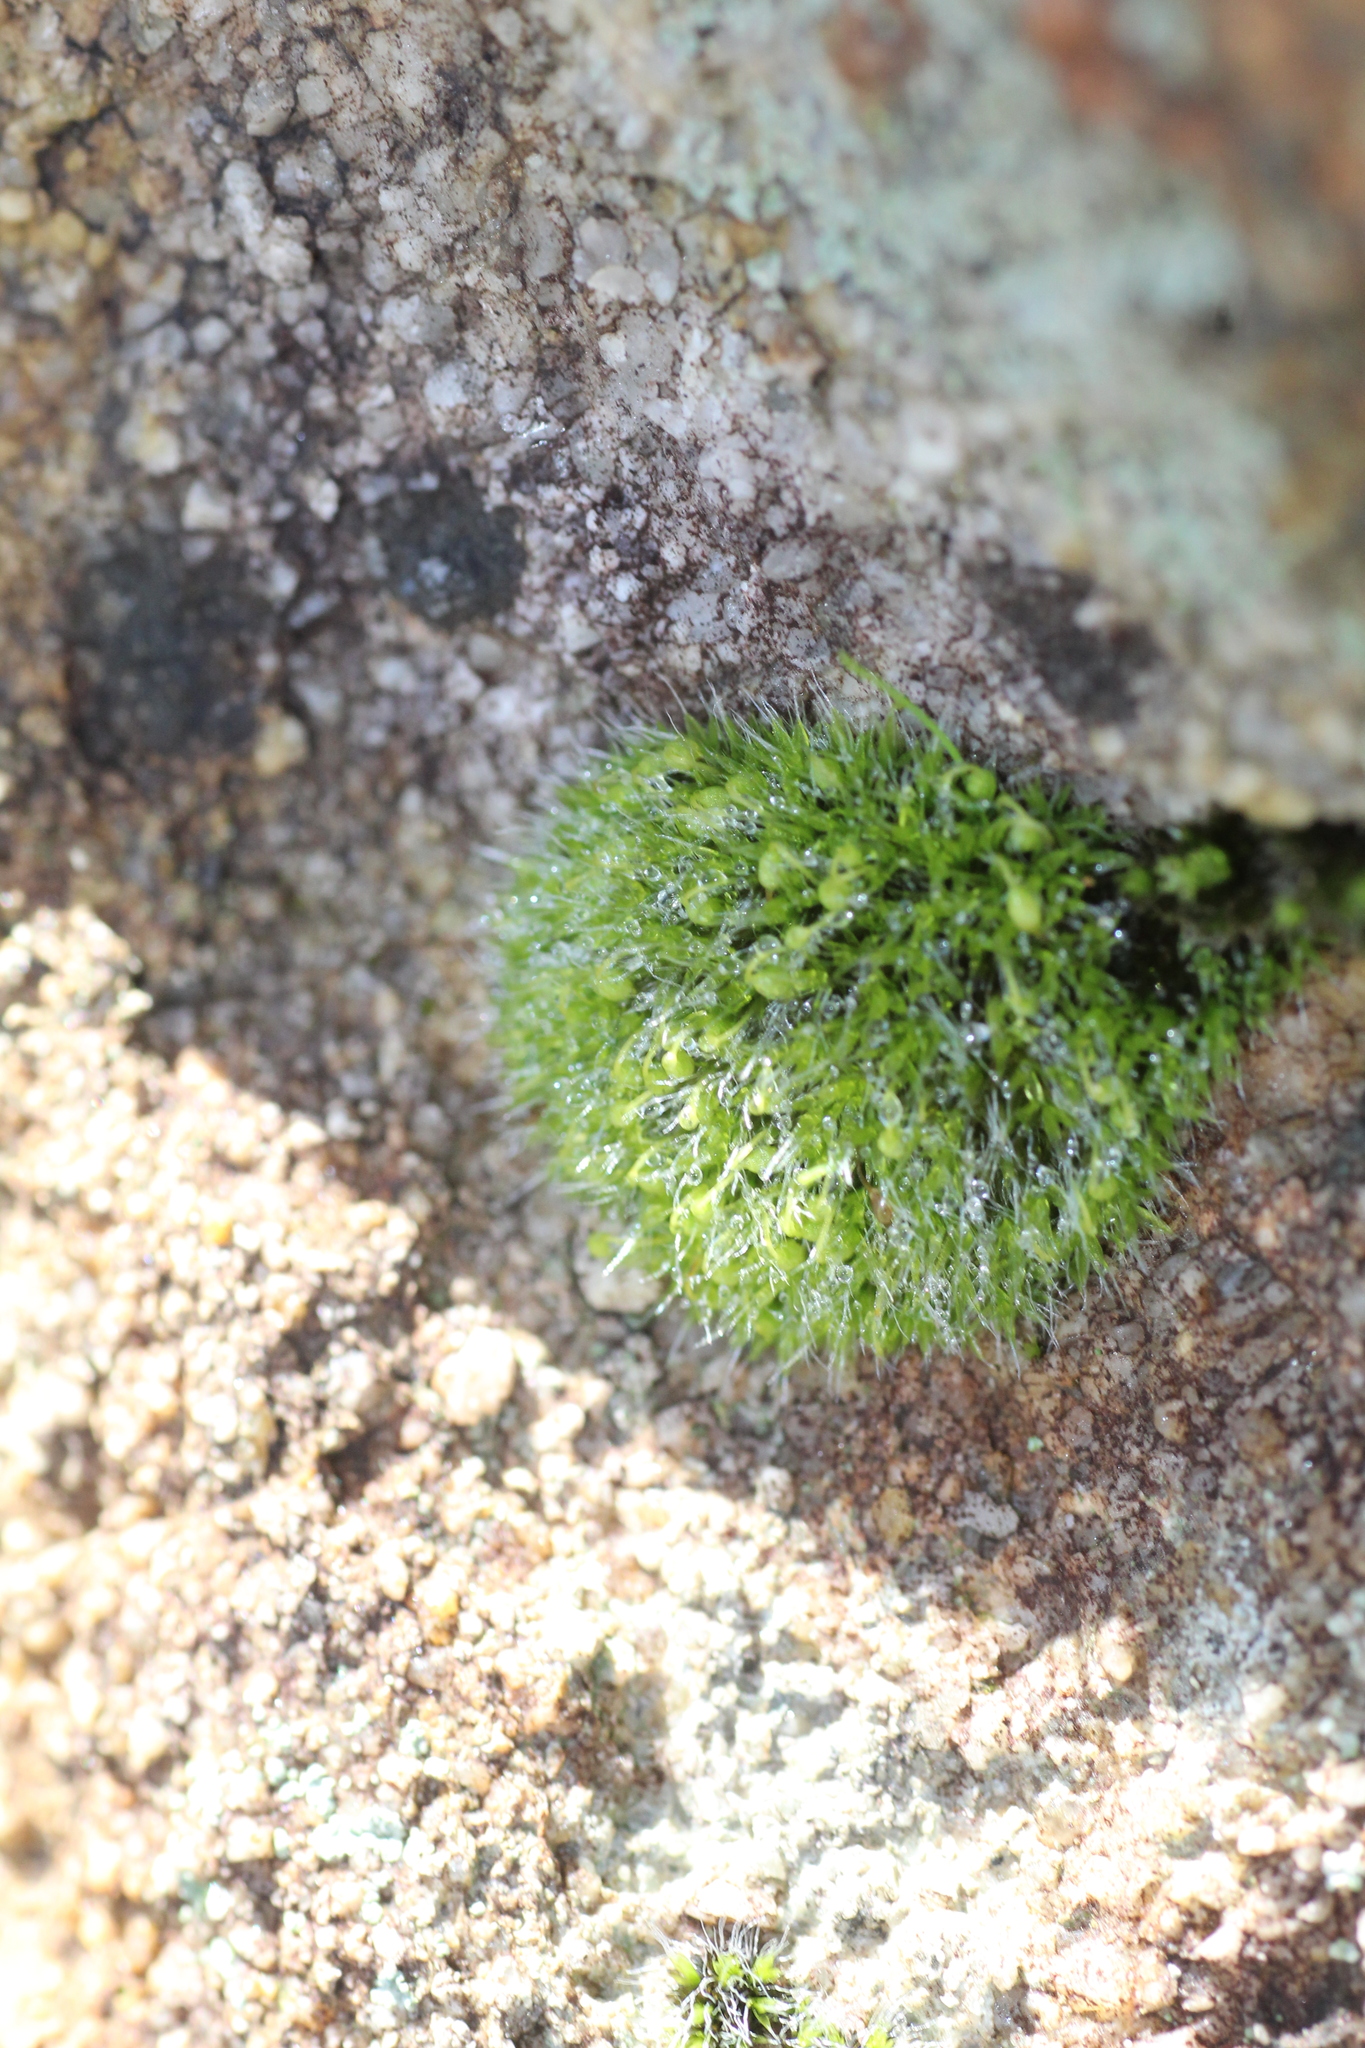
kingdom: Plantae
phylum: Bryophyta
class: Bryopsida
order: Grimmiales
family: Grimmiaceae
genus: Grimmia
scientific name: Grimmia pulvinata
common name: Grey-cushioned grimmia
